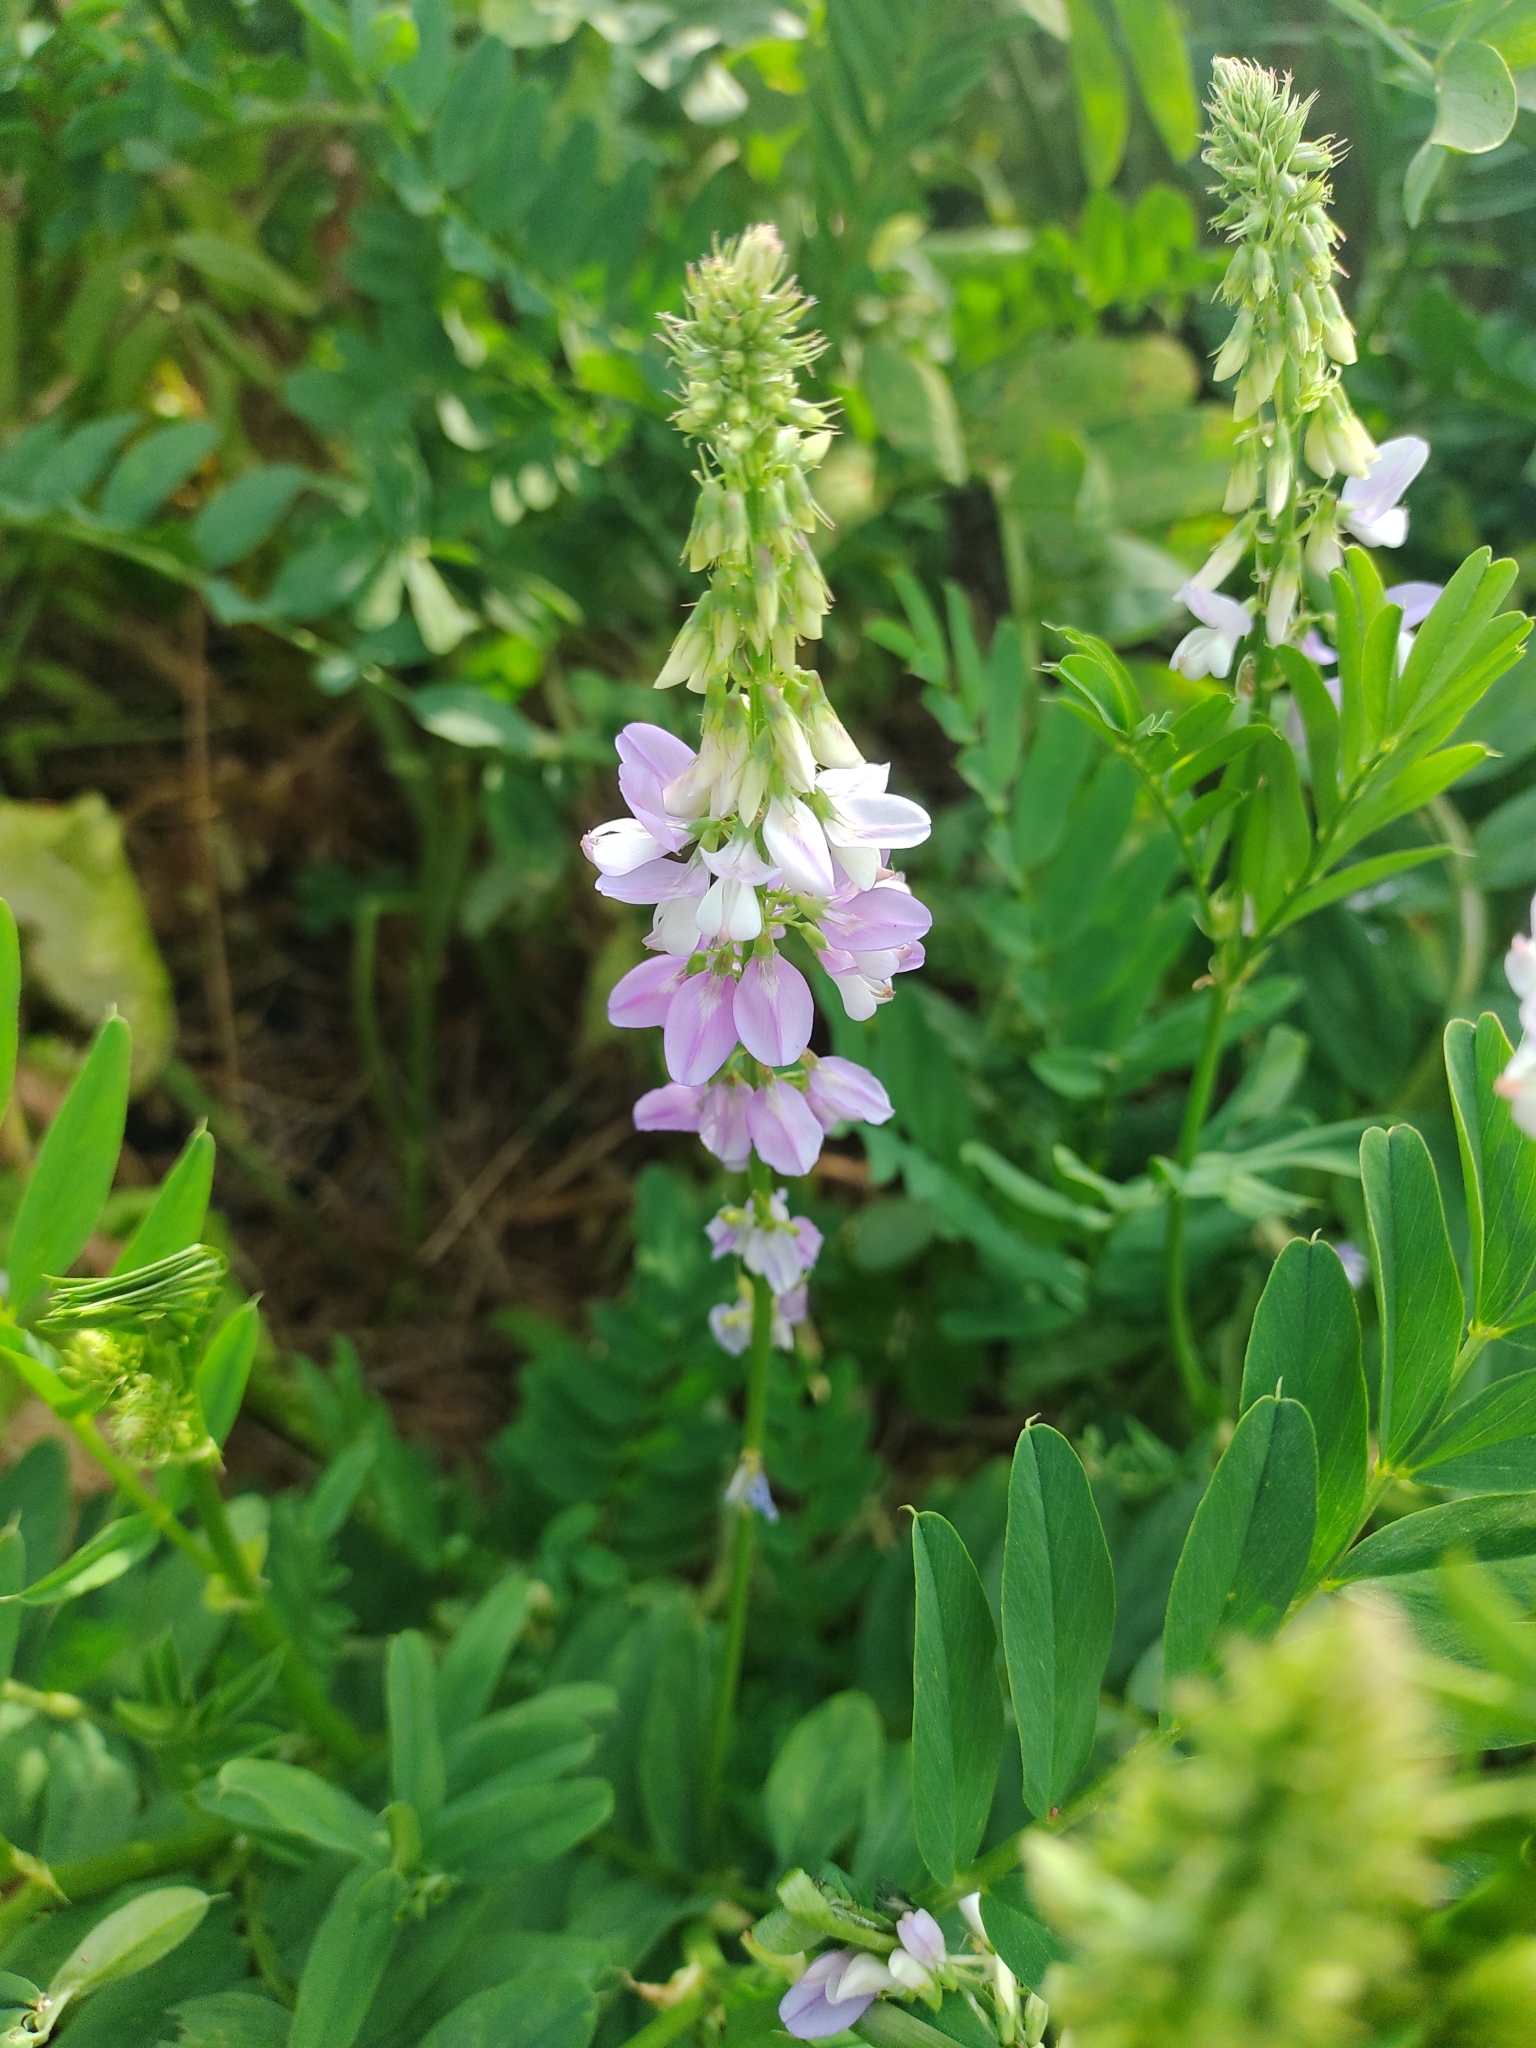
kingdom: Plantae
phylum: Tracheophyta
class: Magnoliopsida
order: Fabales
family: Fabaceae
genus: Galega
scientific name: Galega officinalis
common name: Goat's-rue
